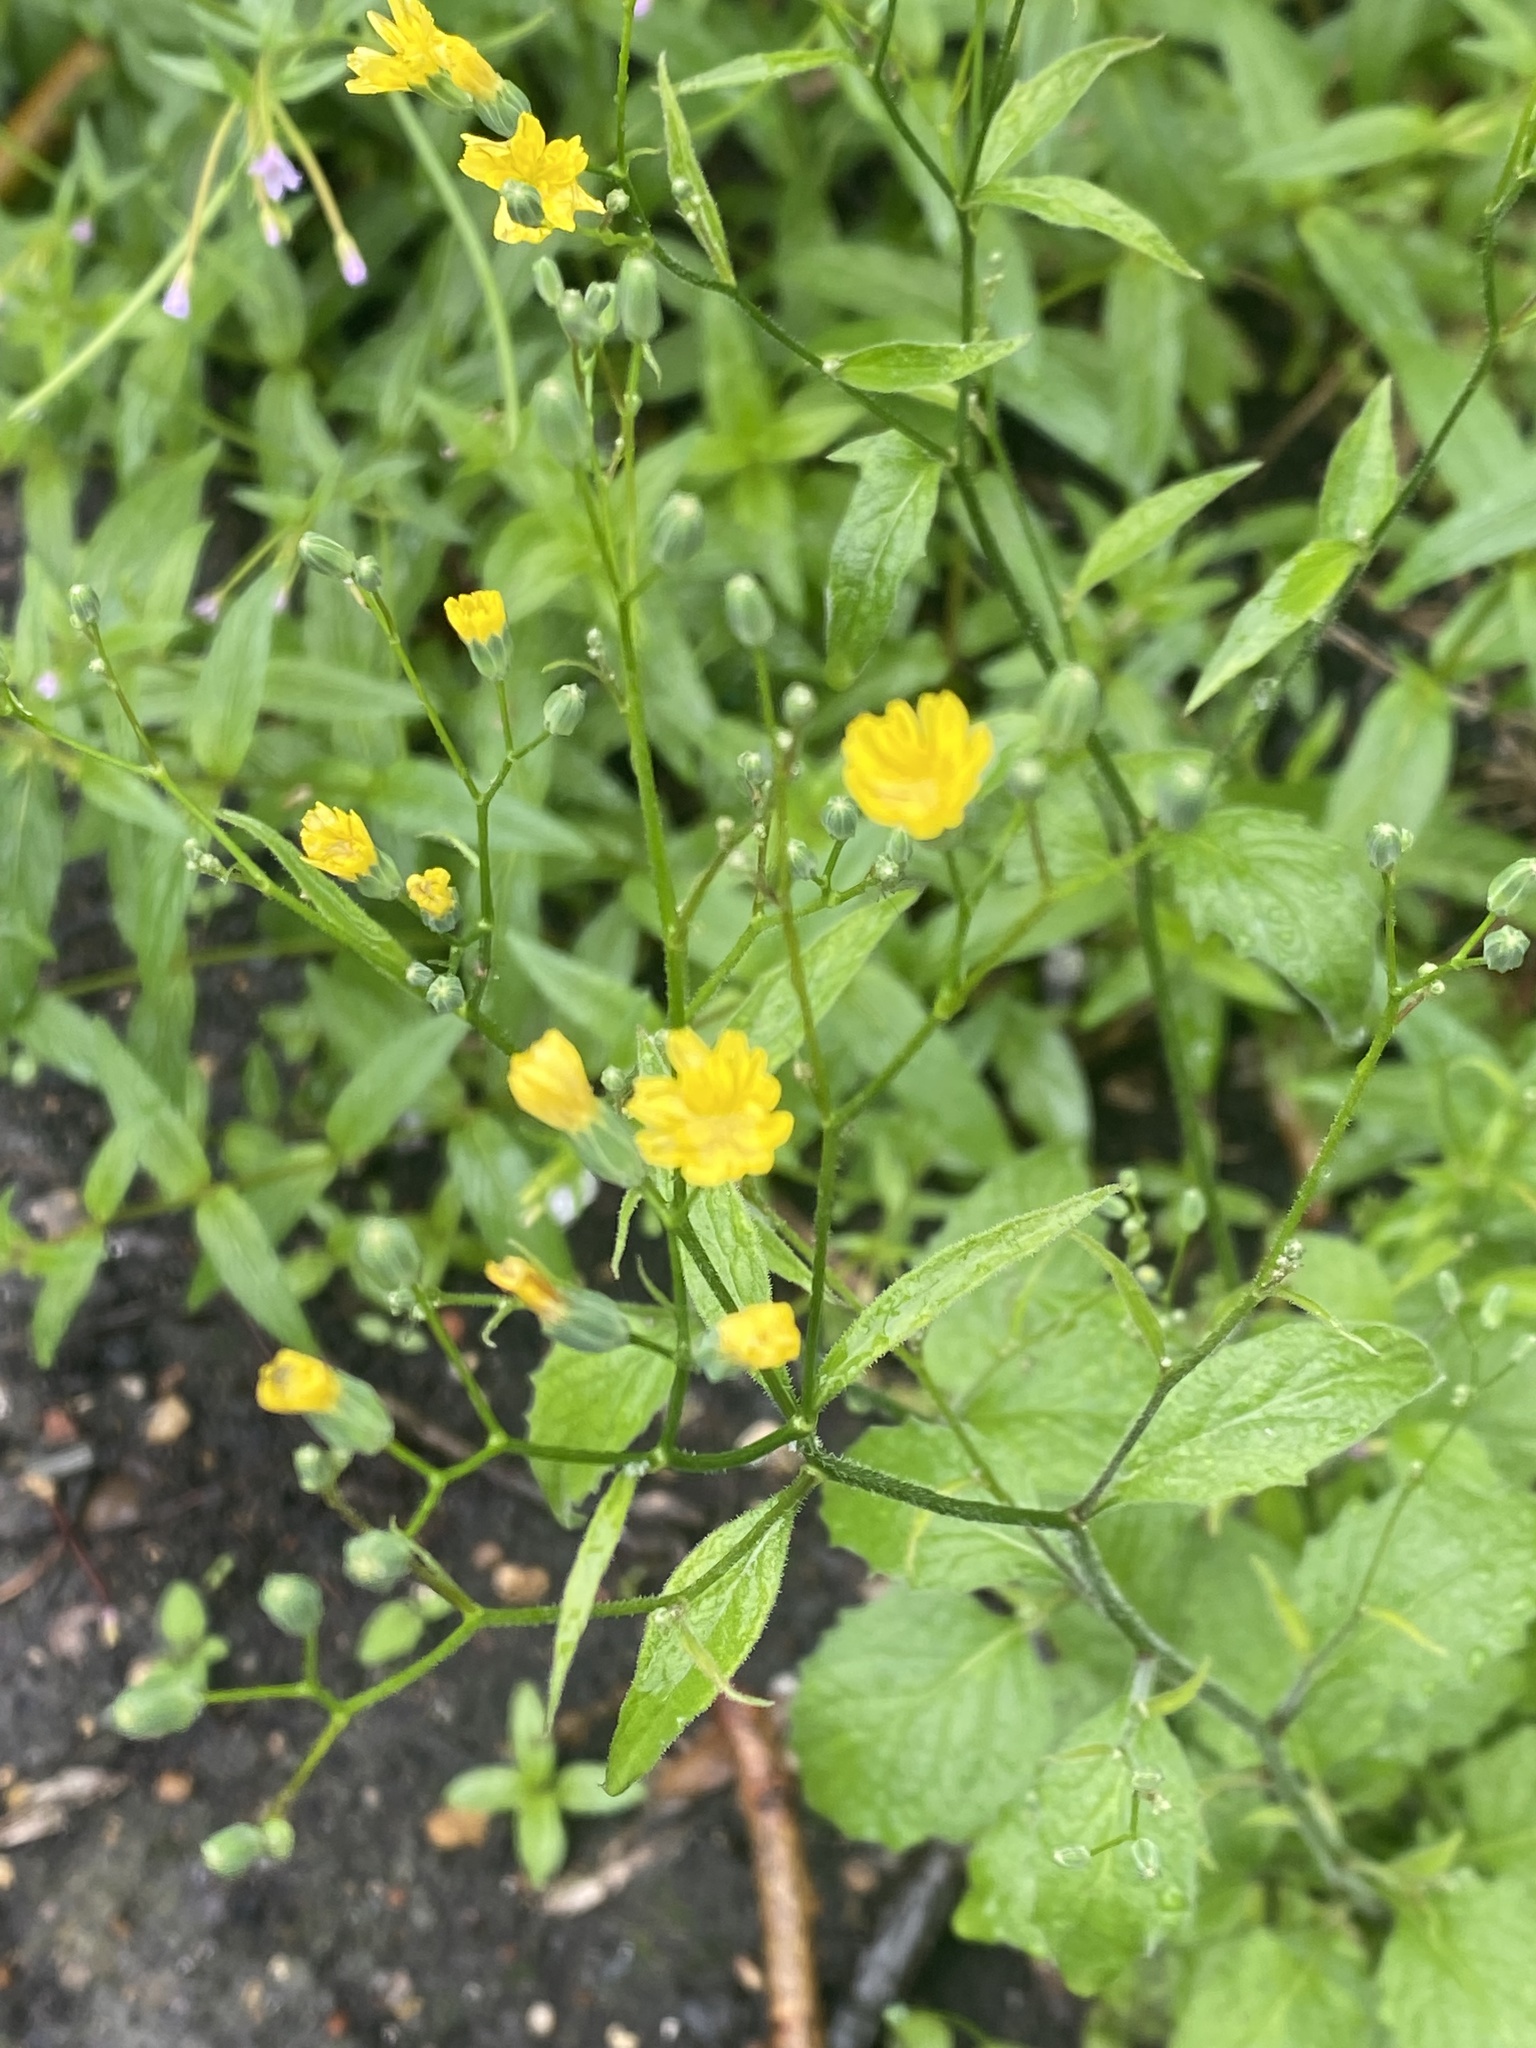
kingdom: Plantae
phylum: Tracheophyta
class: Magnoliopsida
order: Asterales
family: Asteraceae
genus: Lapsana
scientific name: Lapsana communis
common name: Nipplewort
